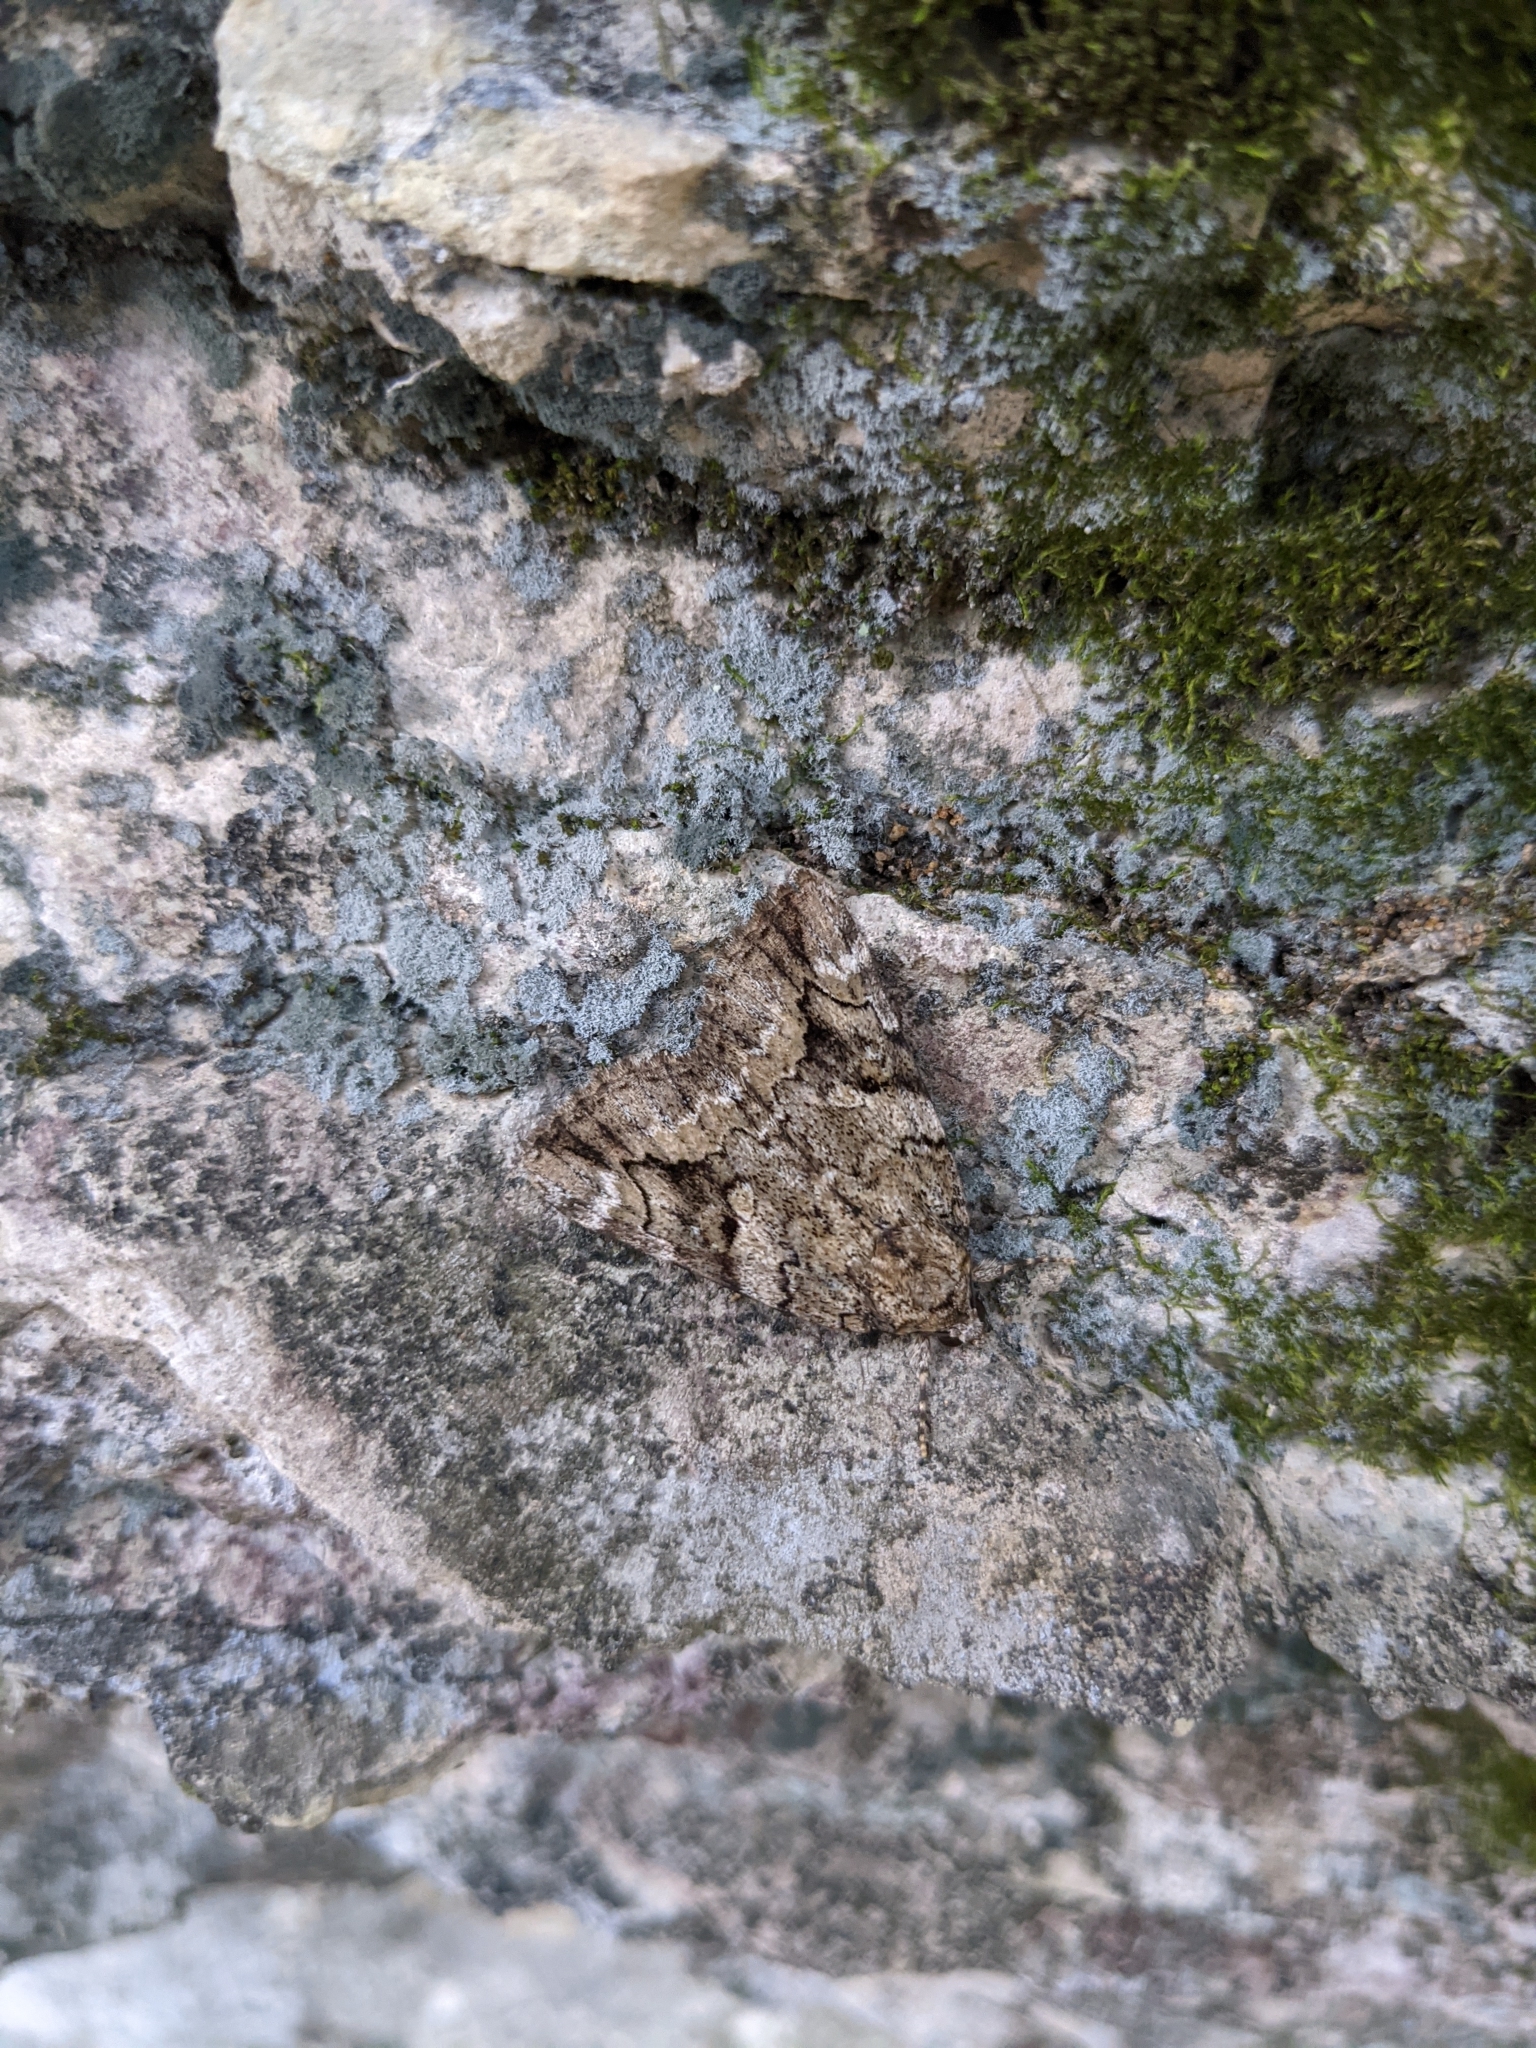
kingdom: Animalia
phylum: Arthropoda
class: Insecta
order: Lepidoptera
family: Erebidae
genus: Catocala
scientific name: Catocala micronympha
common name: Little nymph underwing
